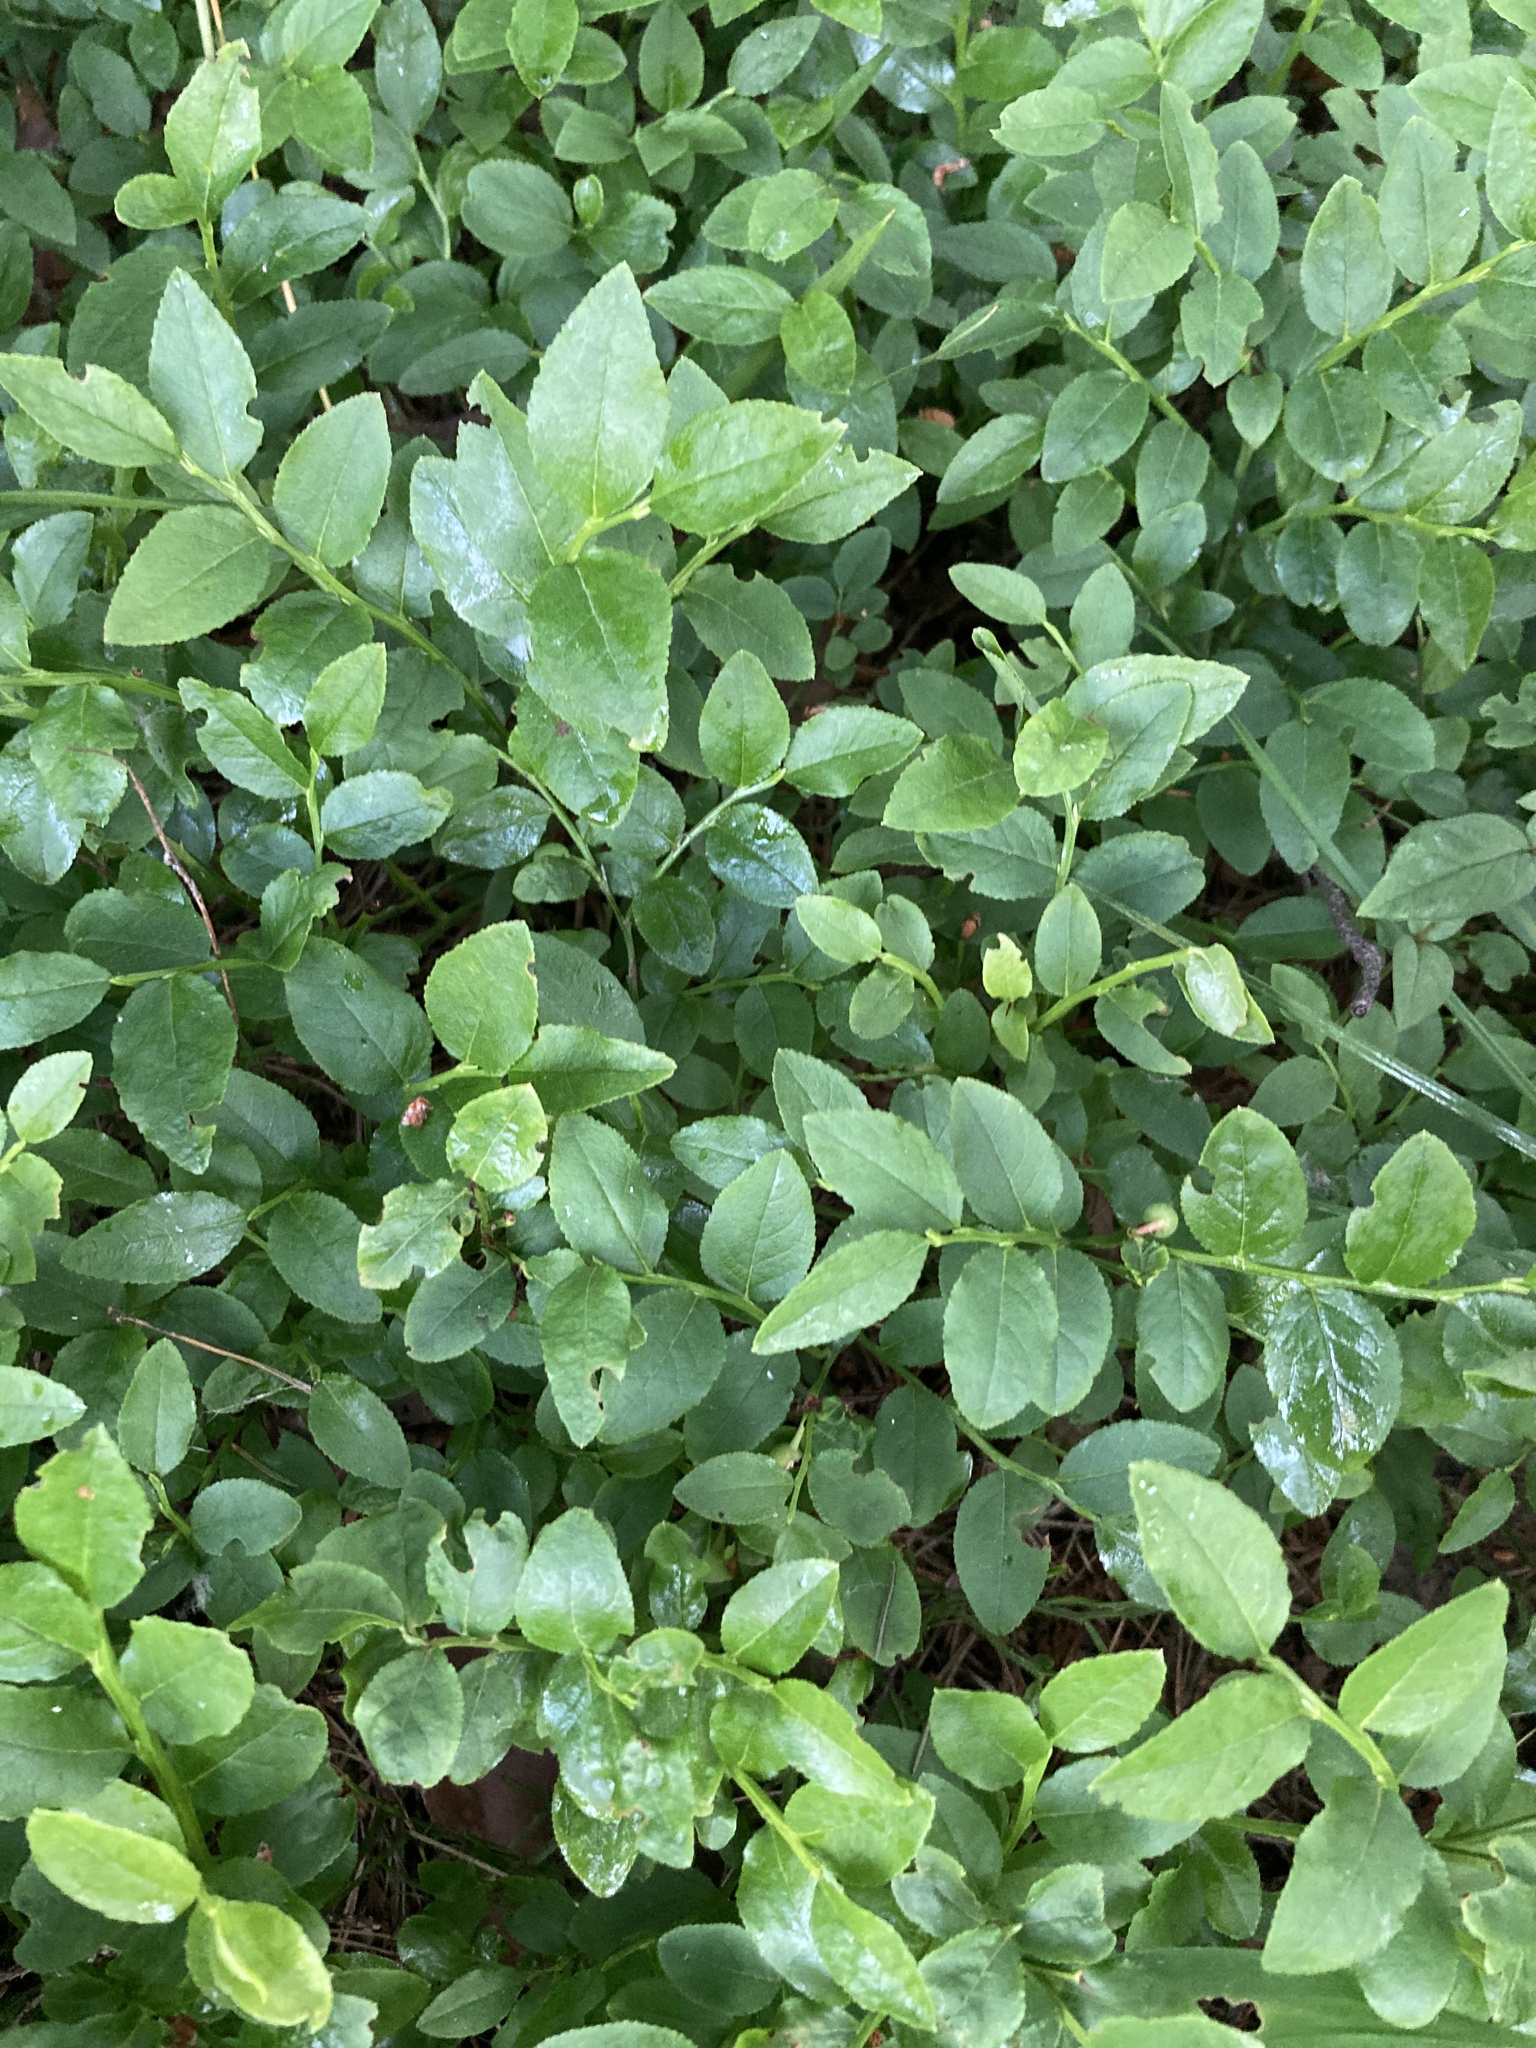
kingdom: Plantae
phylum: Tracheophyta
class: Magnoliopsida
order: Ericales
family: Ericaceae
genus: Vaccinium
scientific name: Vaccinium myrtillus
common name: Bilberry
